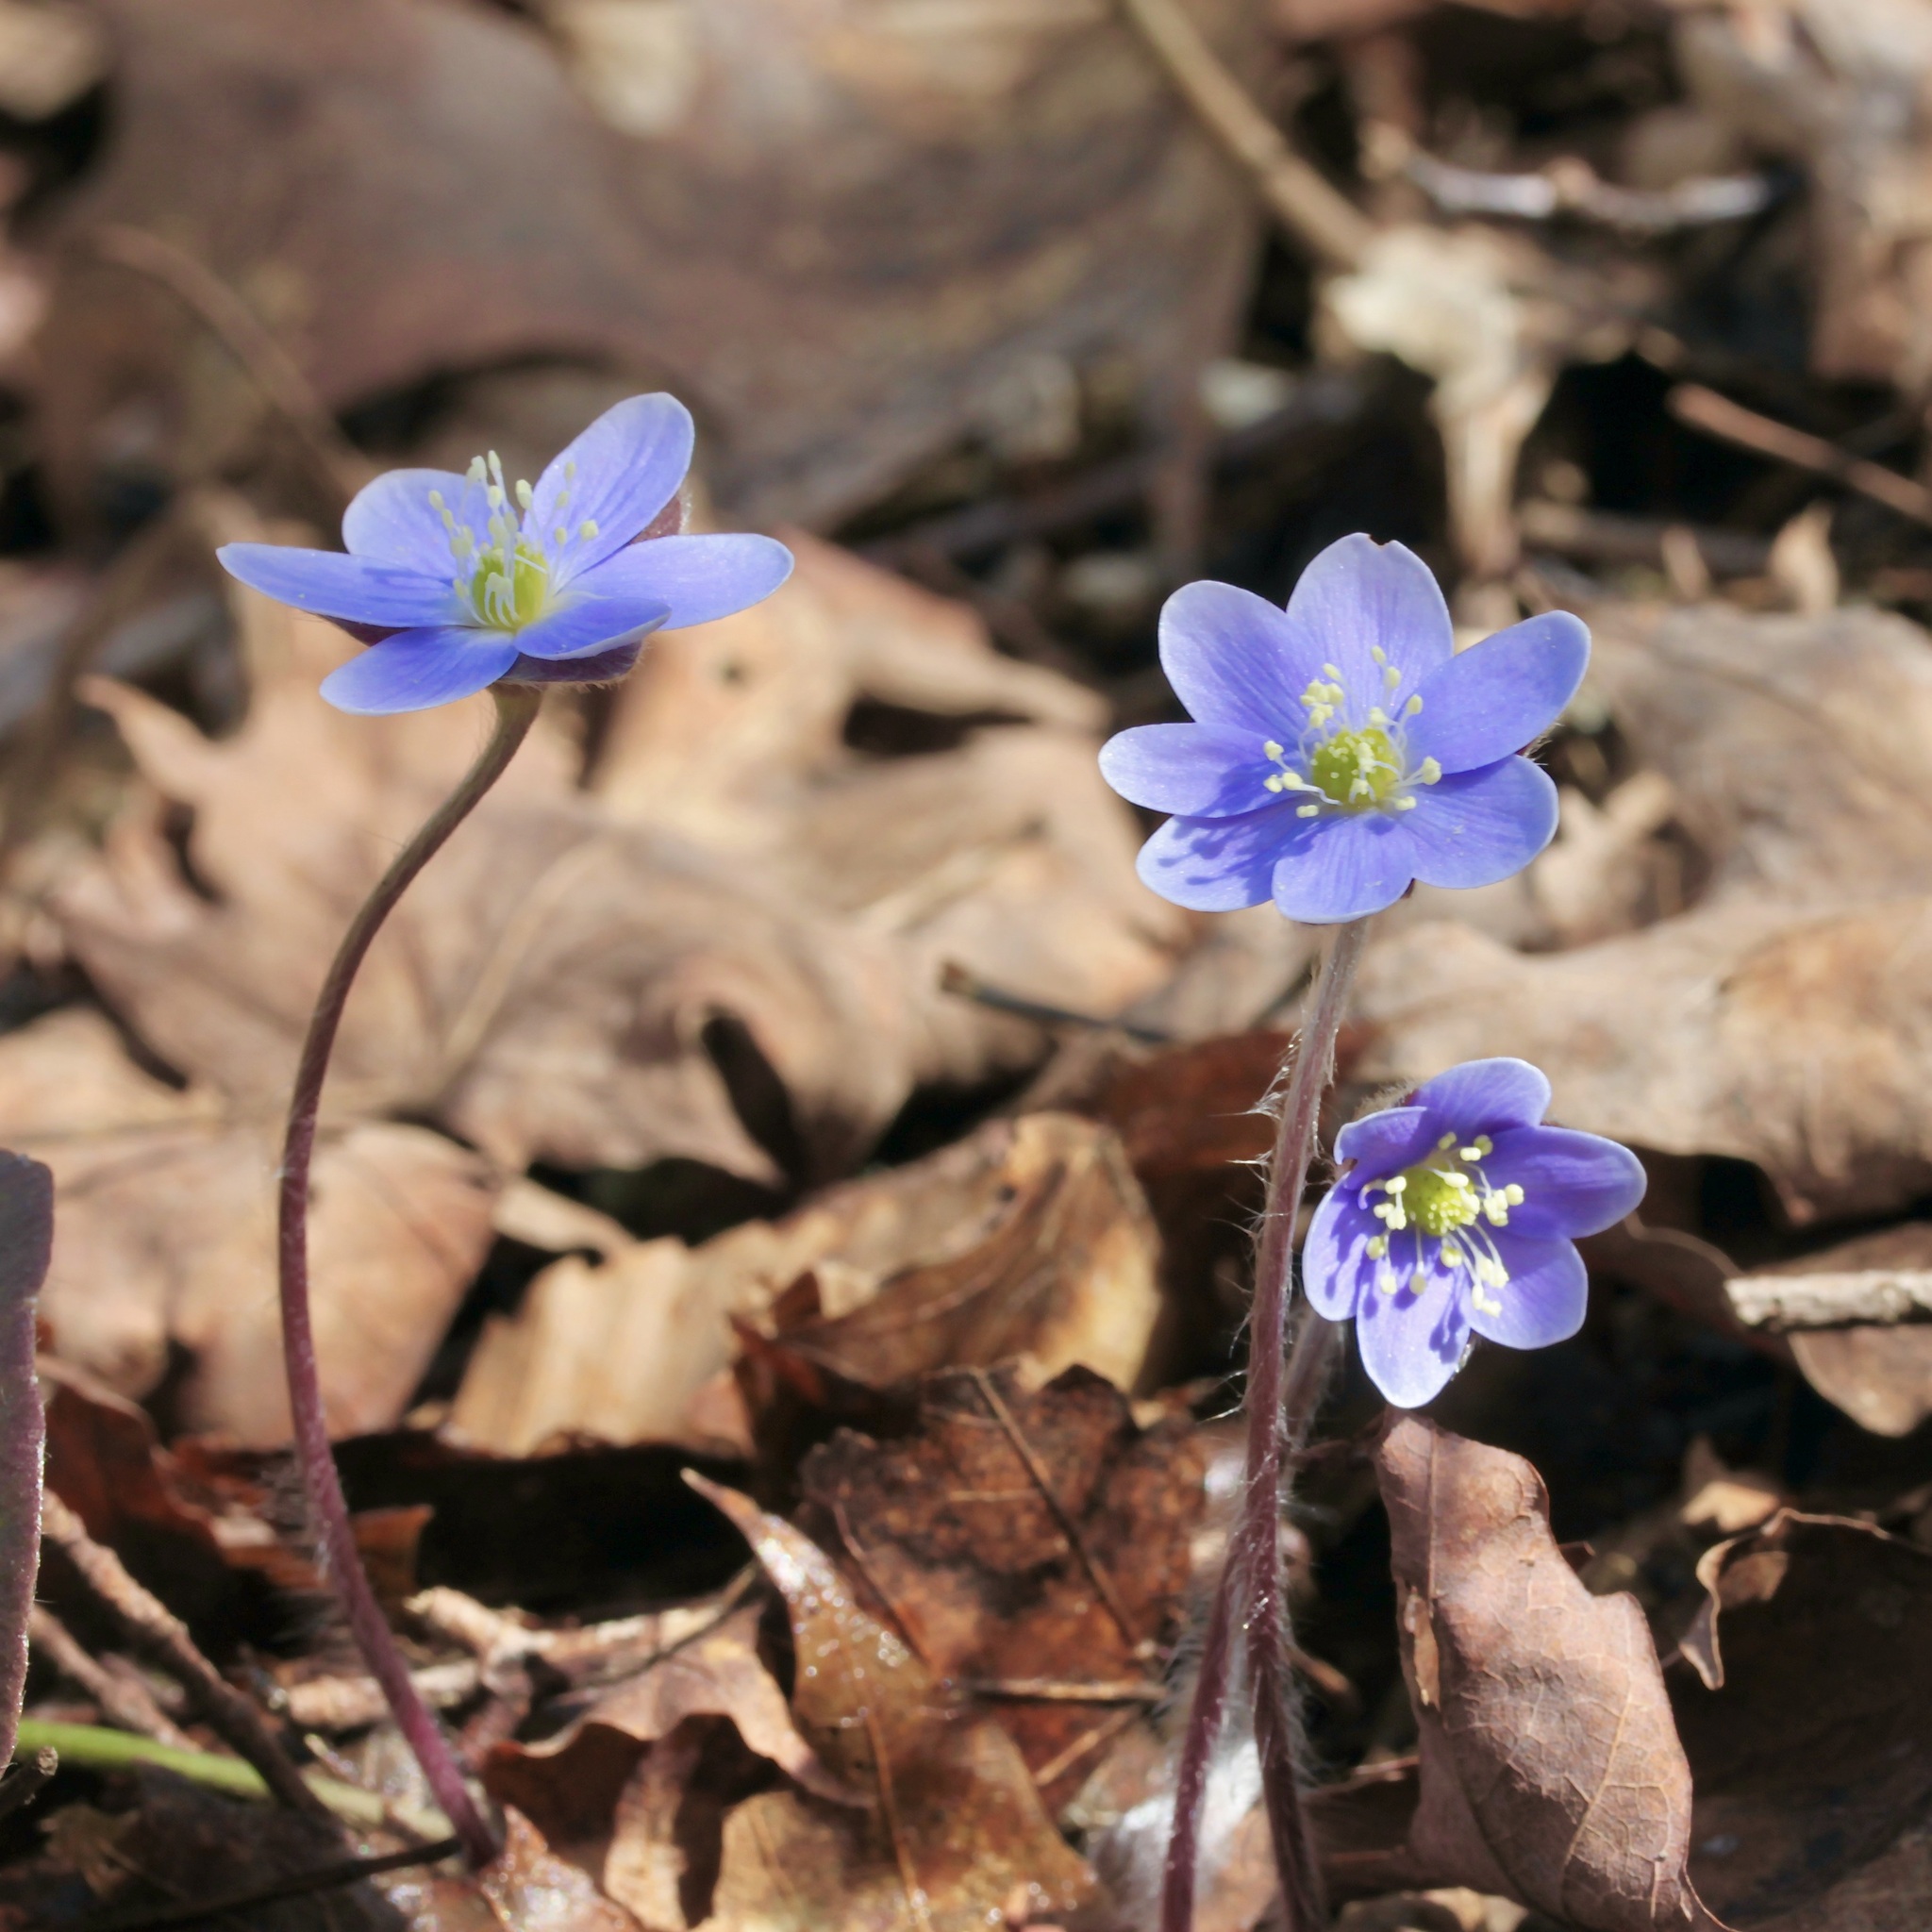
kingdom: Plantae
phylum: Tracheophyta
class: Magnoliopsida
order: Ranunculales
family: Ranunculaceae
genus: Hepatica
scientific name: Hepatica americana
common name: American hepatica
